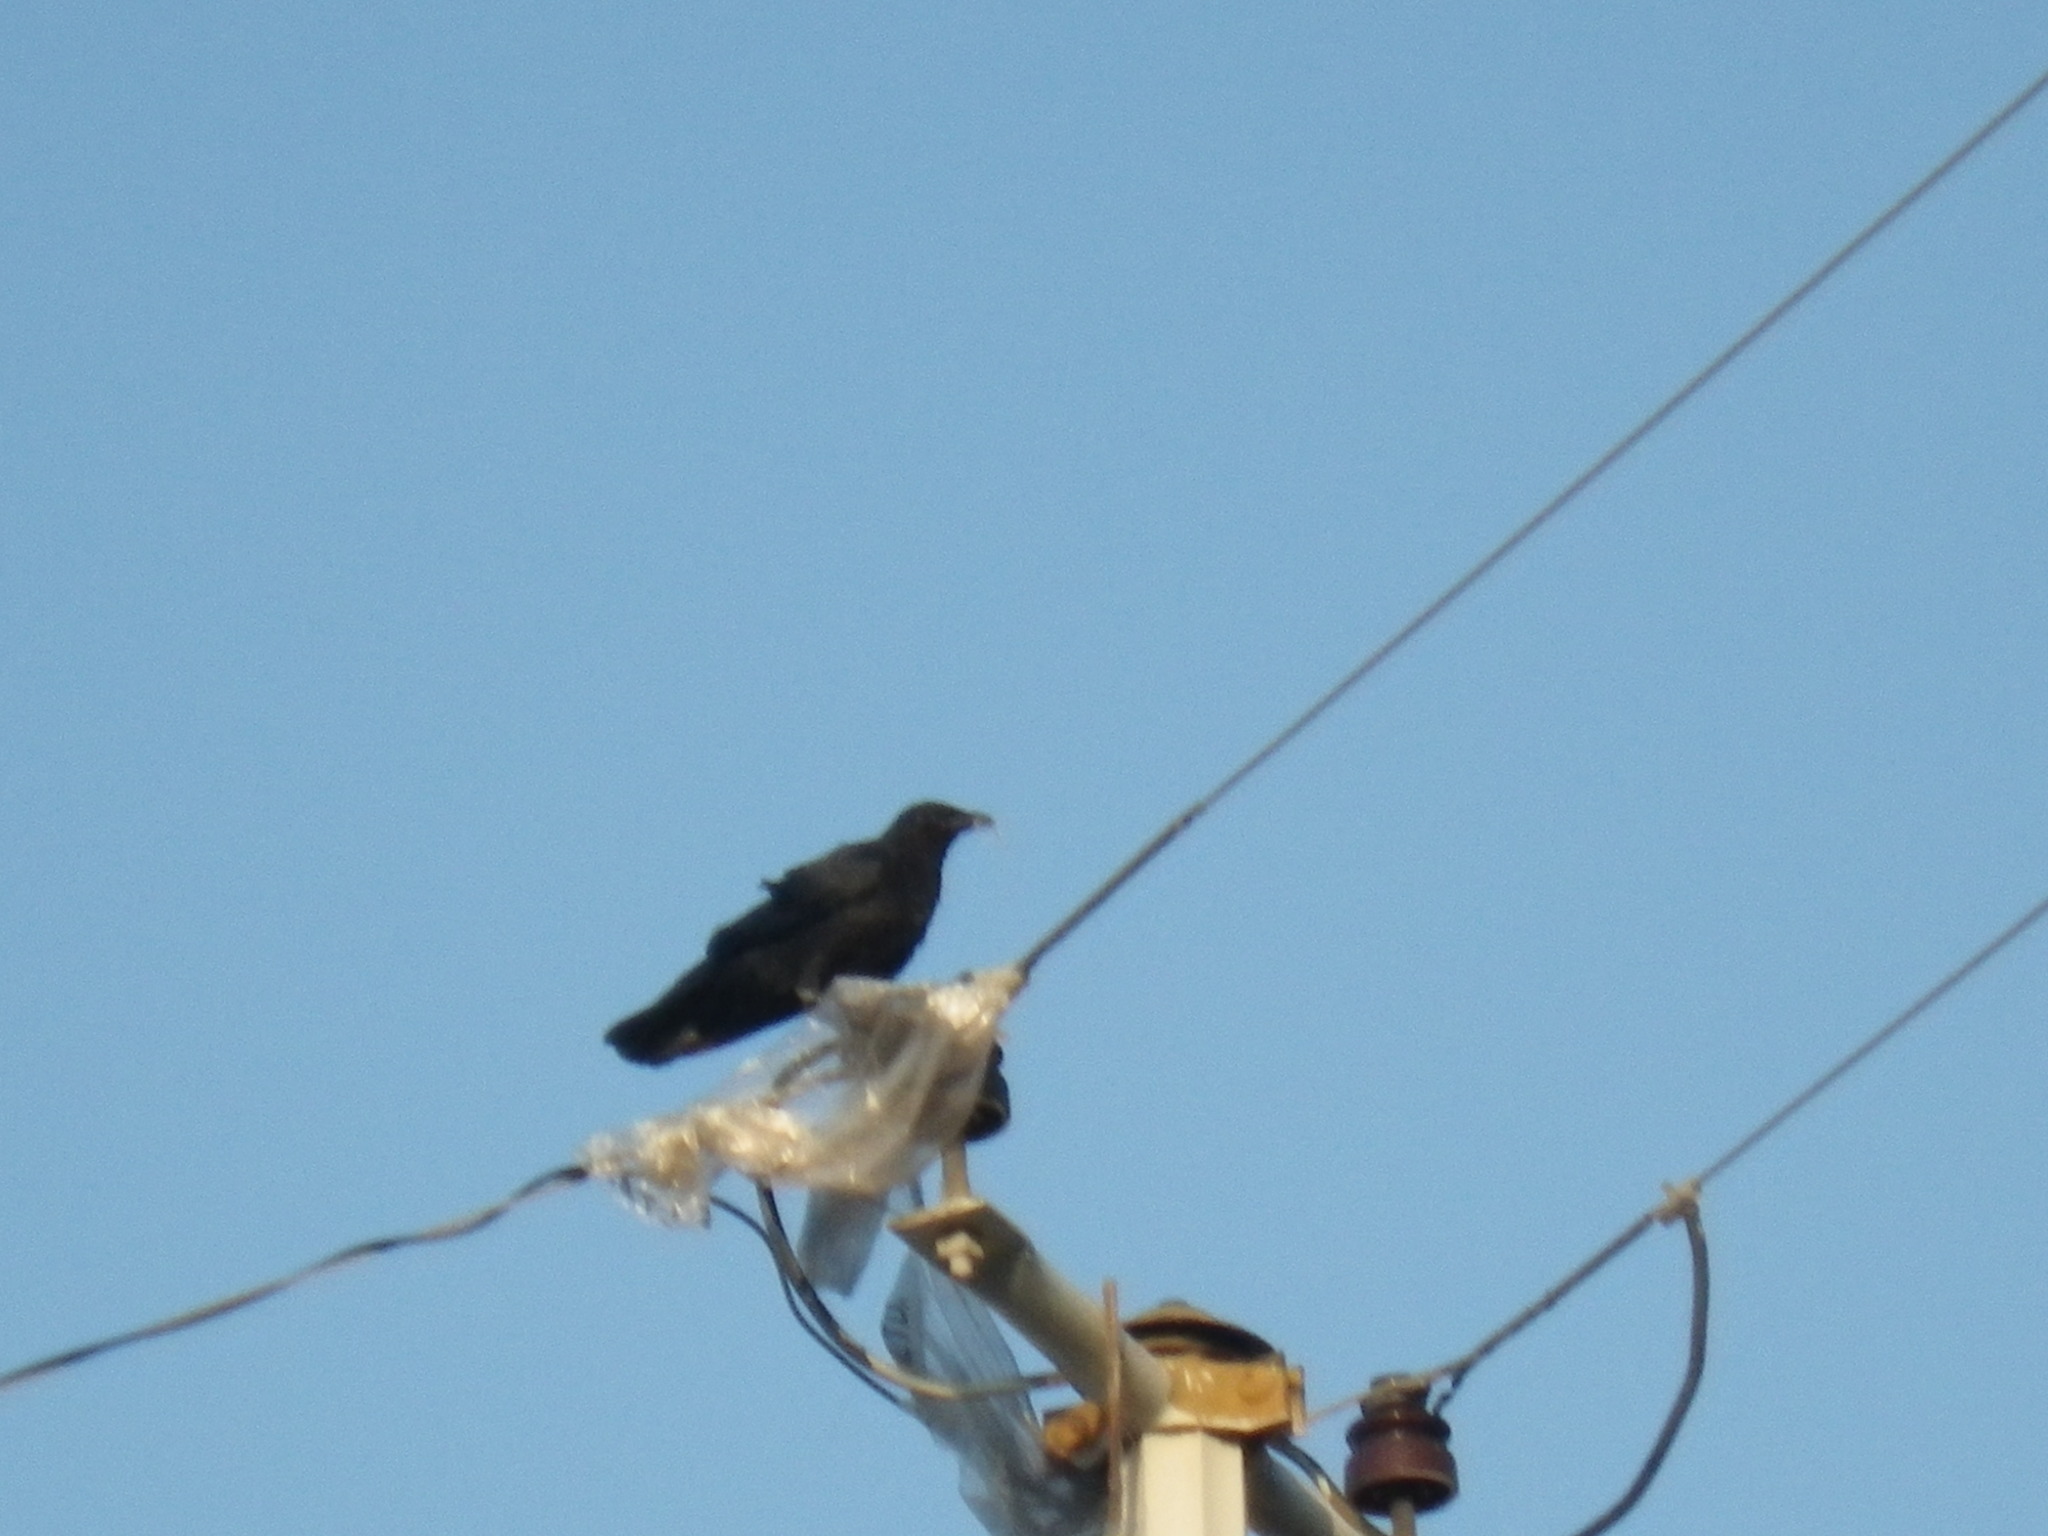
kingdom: Animalia
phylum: Chordata
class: Aves
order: Passeriformes
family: Corvidae
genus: Corvus
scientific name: Corvus corax
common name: Common raven
